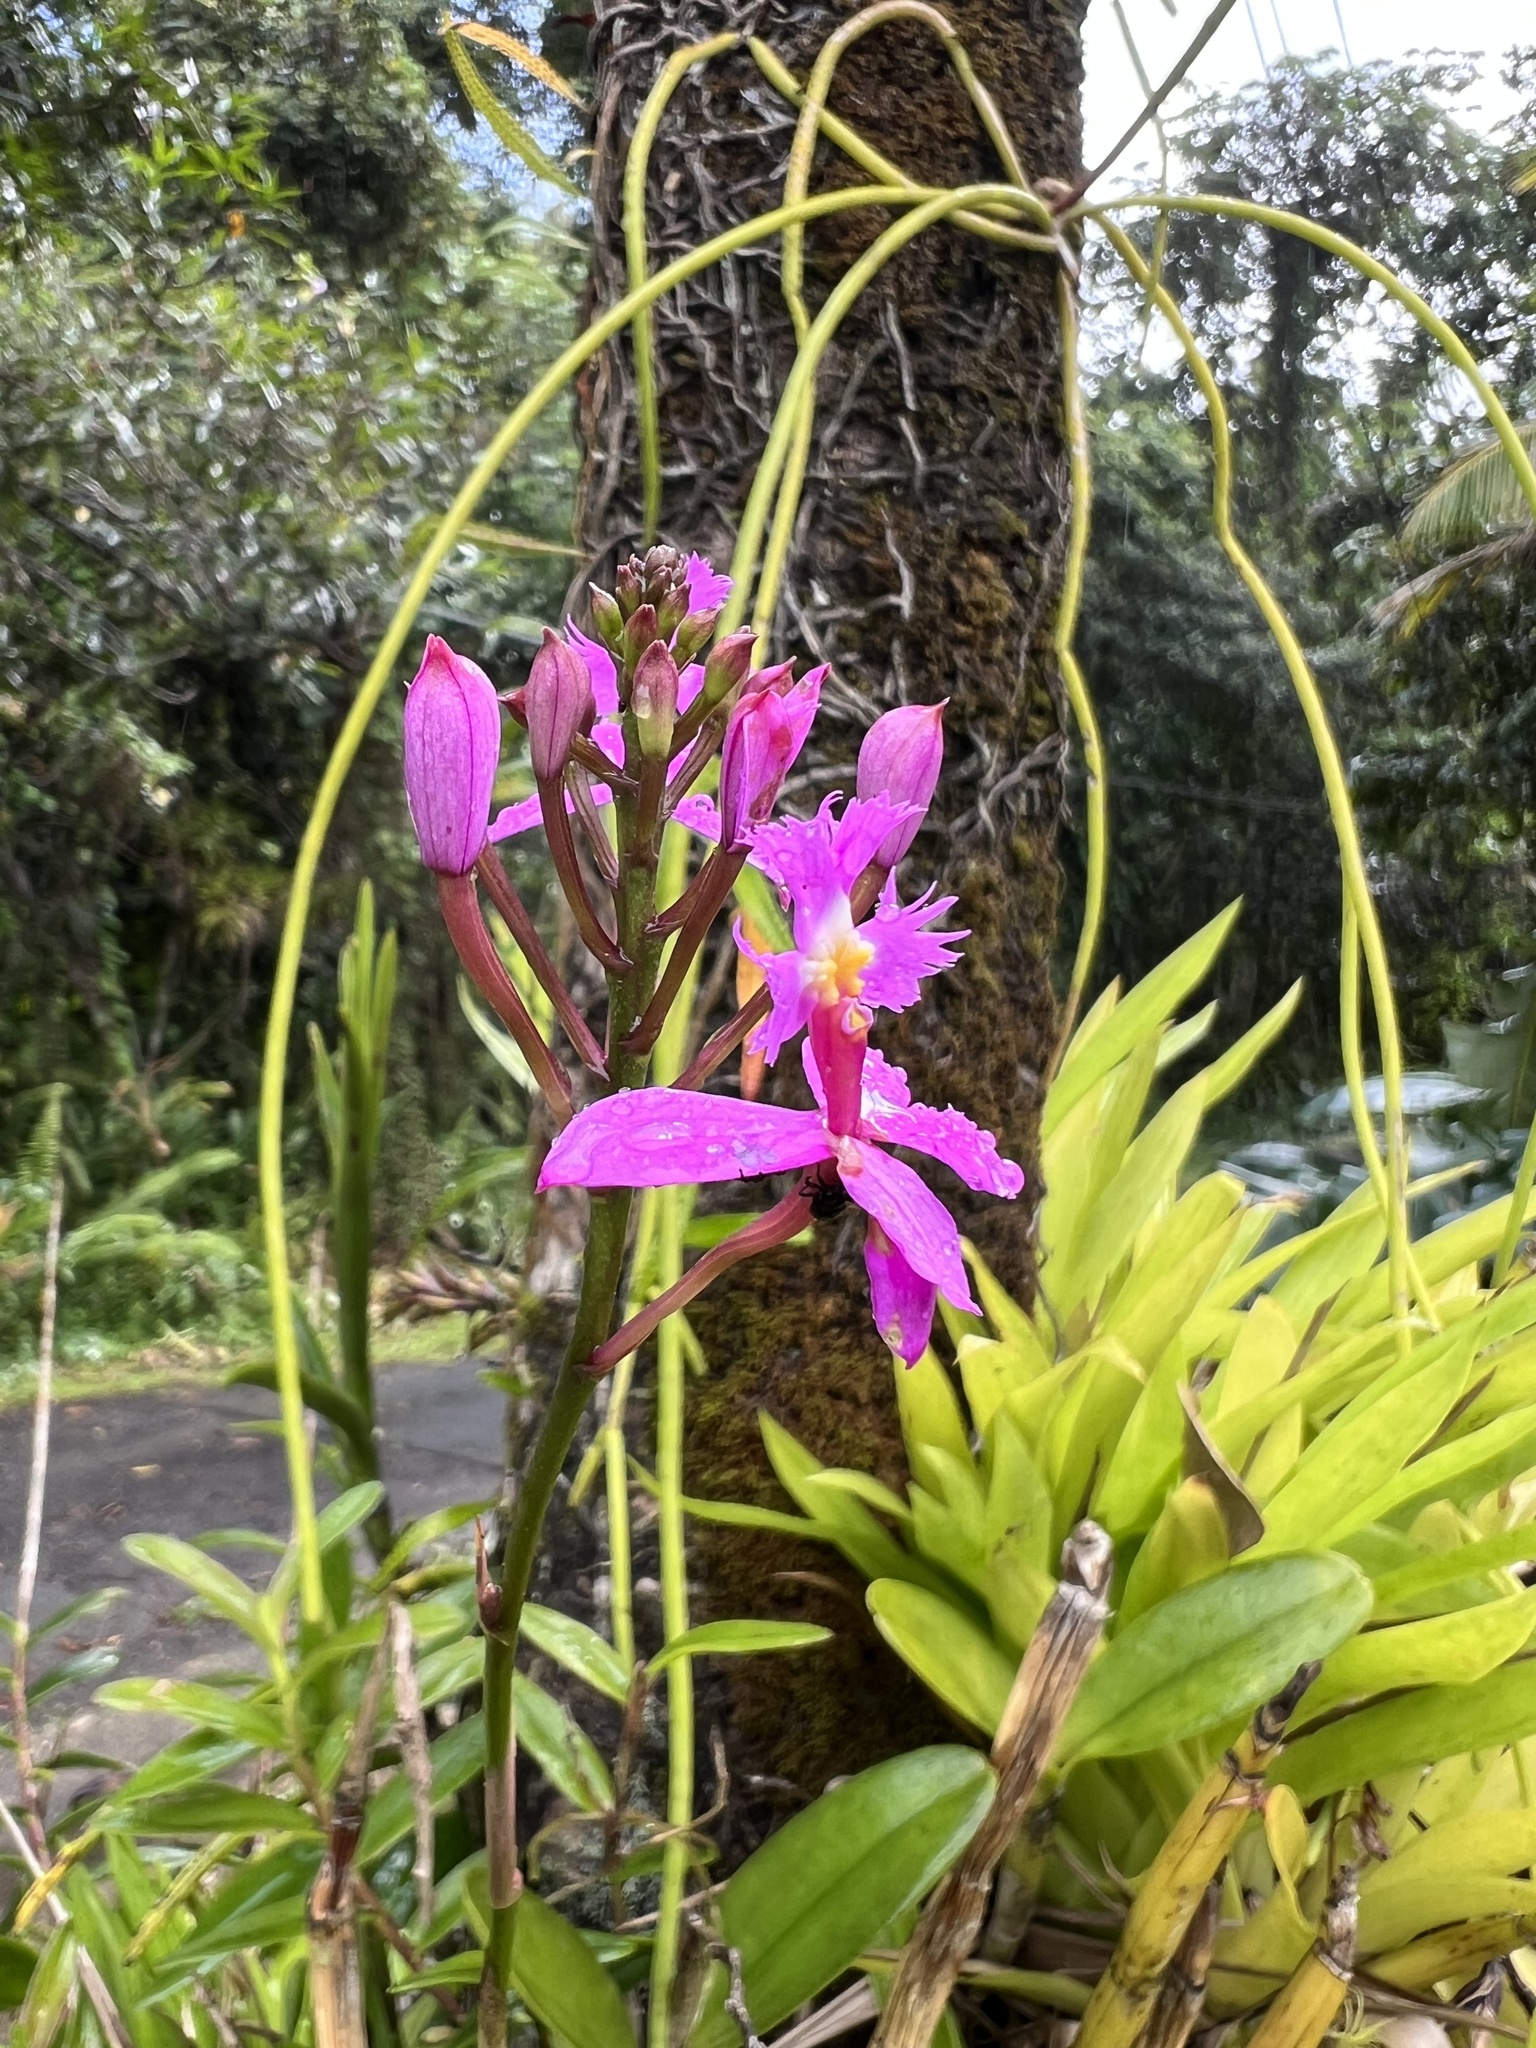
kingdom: Plantae
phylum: Tracheophyta
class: Liliopsida
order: Asparagales
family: Orchidaceae
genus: Epidendrum
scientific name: Epidendrum secundum
